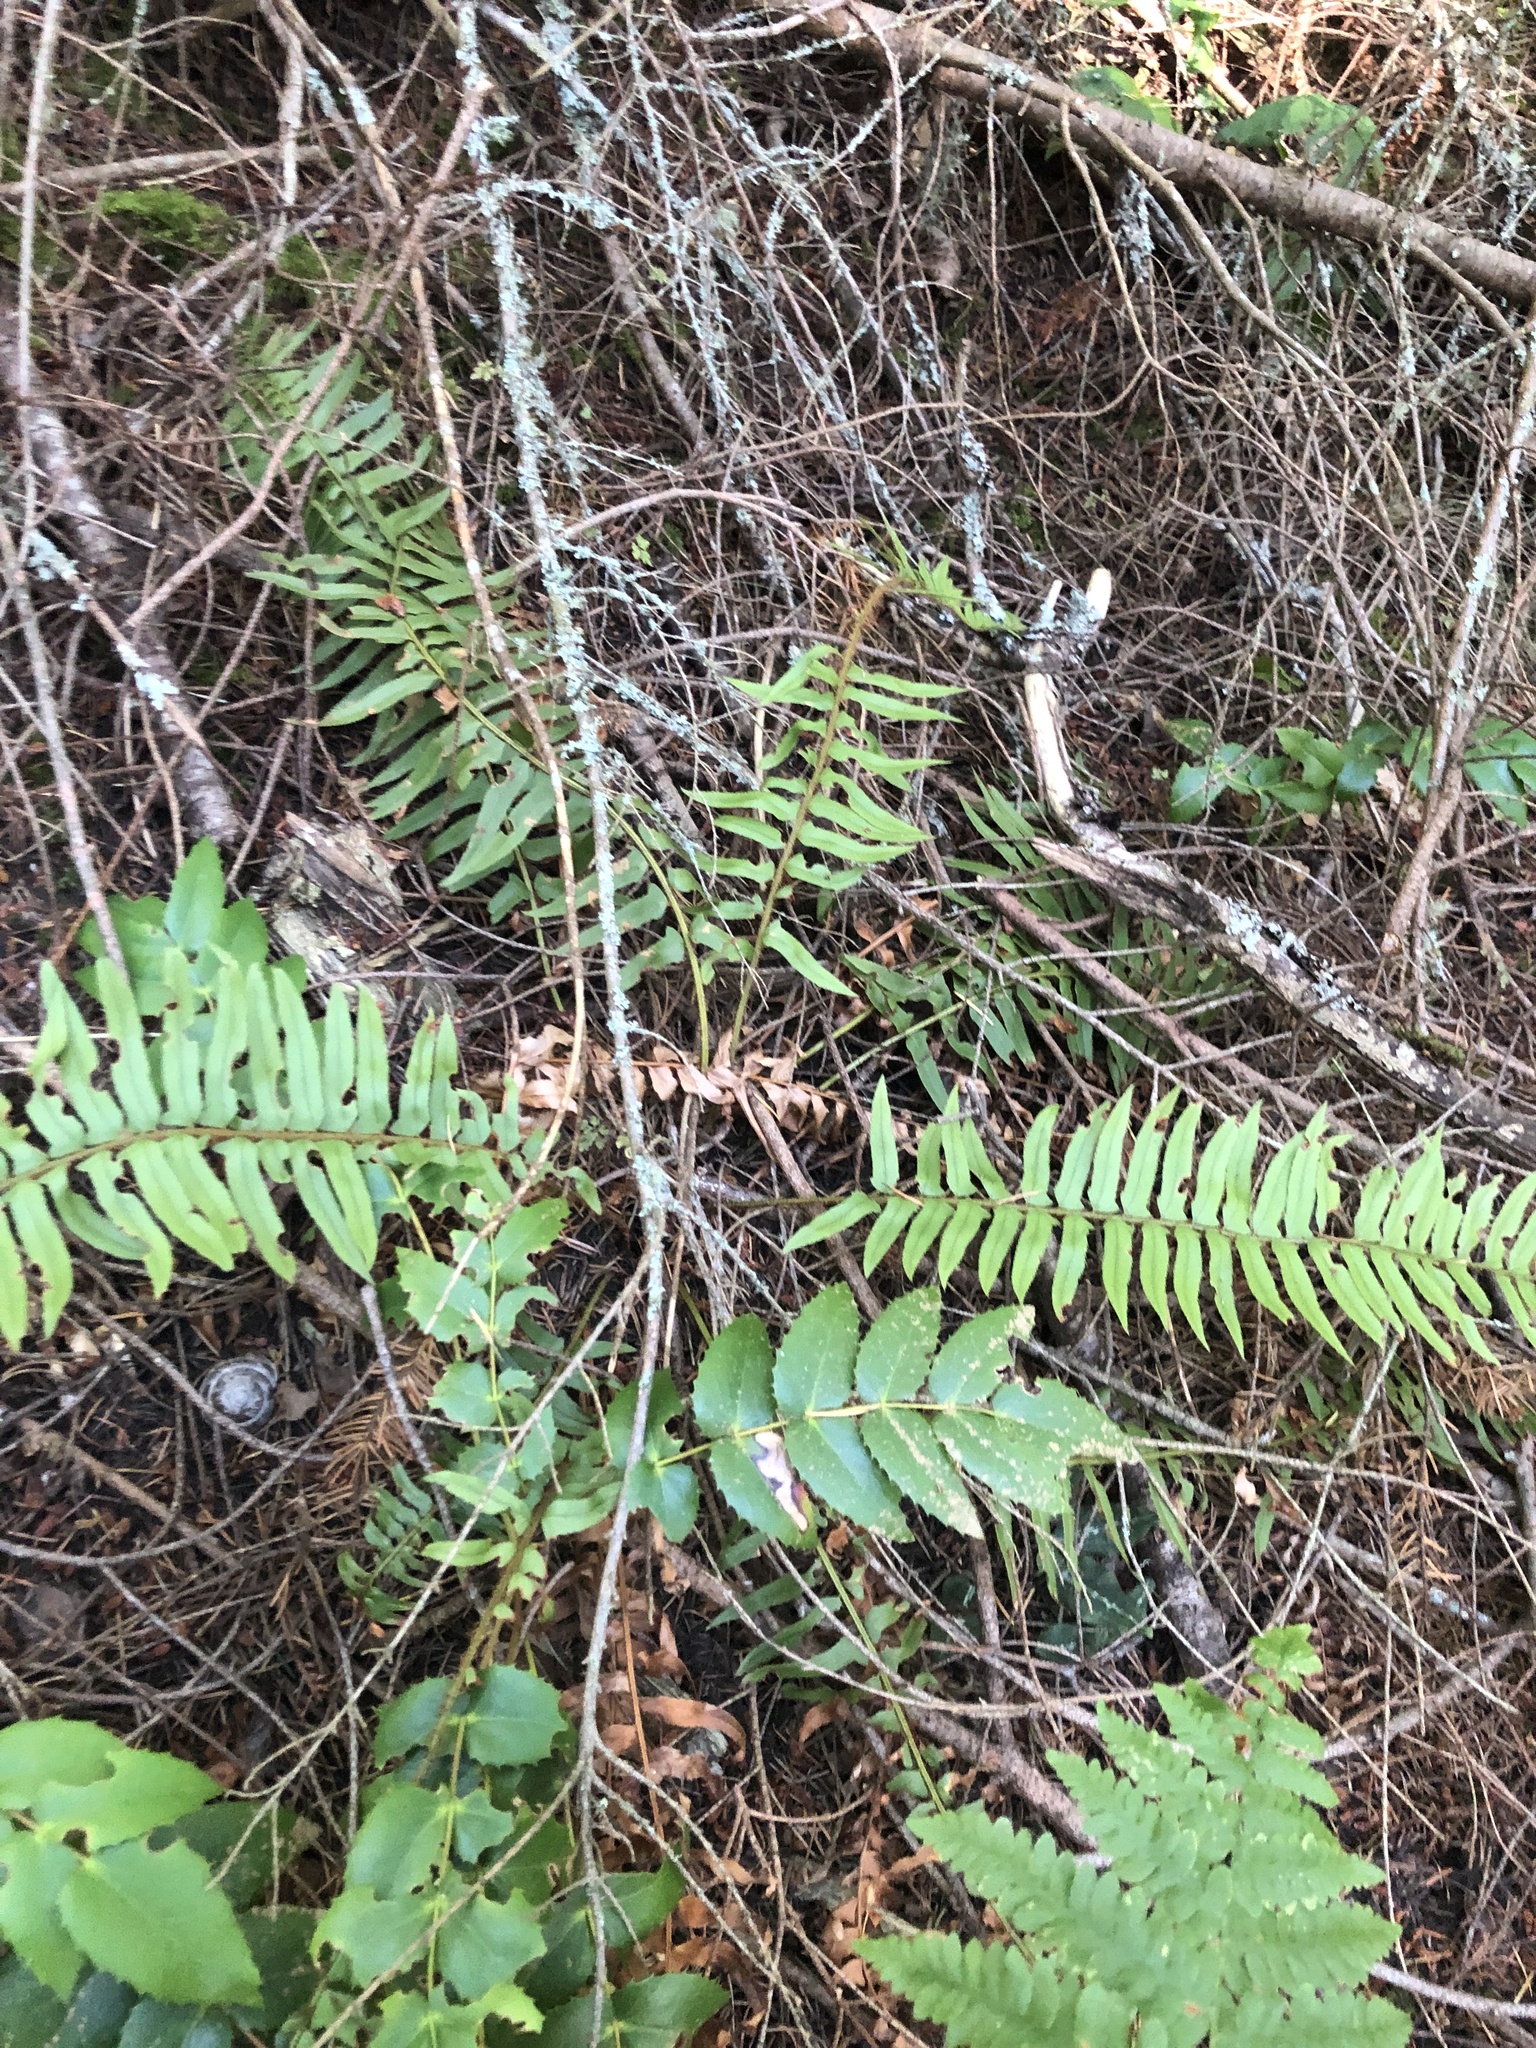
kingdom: Plantae
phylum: Tracheophyta
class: Polypodiopsida
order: Polypodiales
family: Dryopteridaceae
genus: Polystichum
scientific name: Polystichum munitum
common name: Western sword-fern
